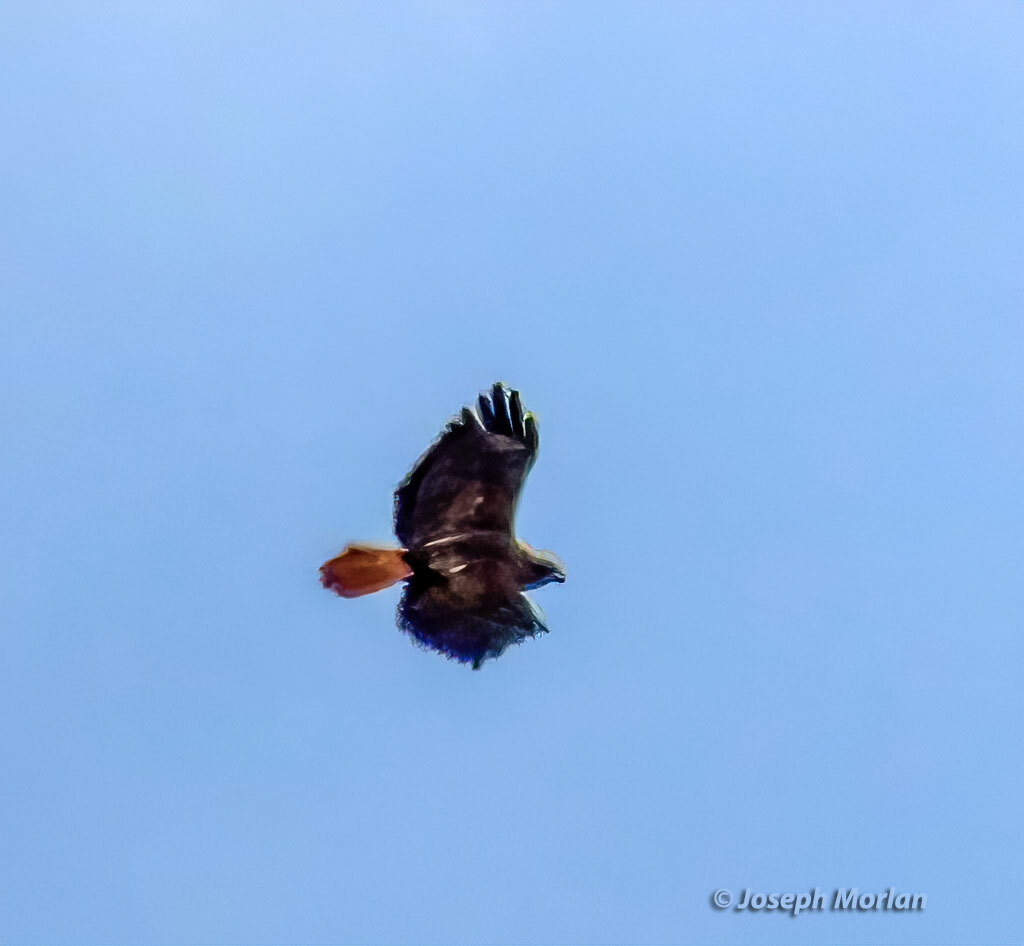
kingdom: Animalia
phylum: Chordata
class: Aves
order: Accipitriformes
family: Accipitridae
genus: Buteo
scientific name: Buteo jamaicensis
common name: Red-tailed hawk
